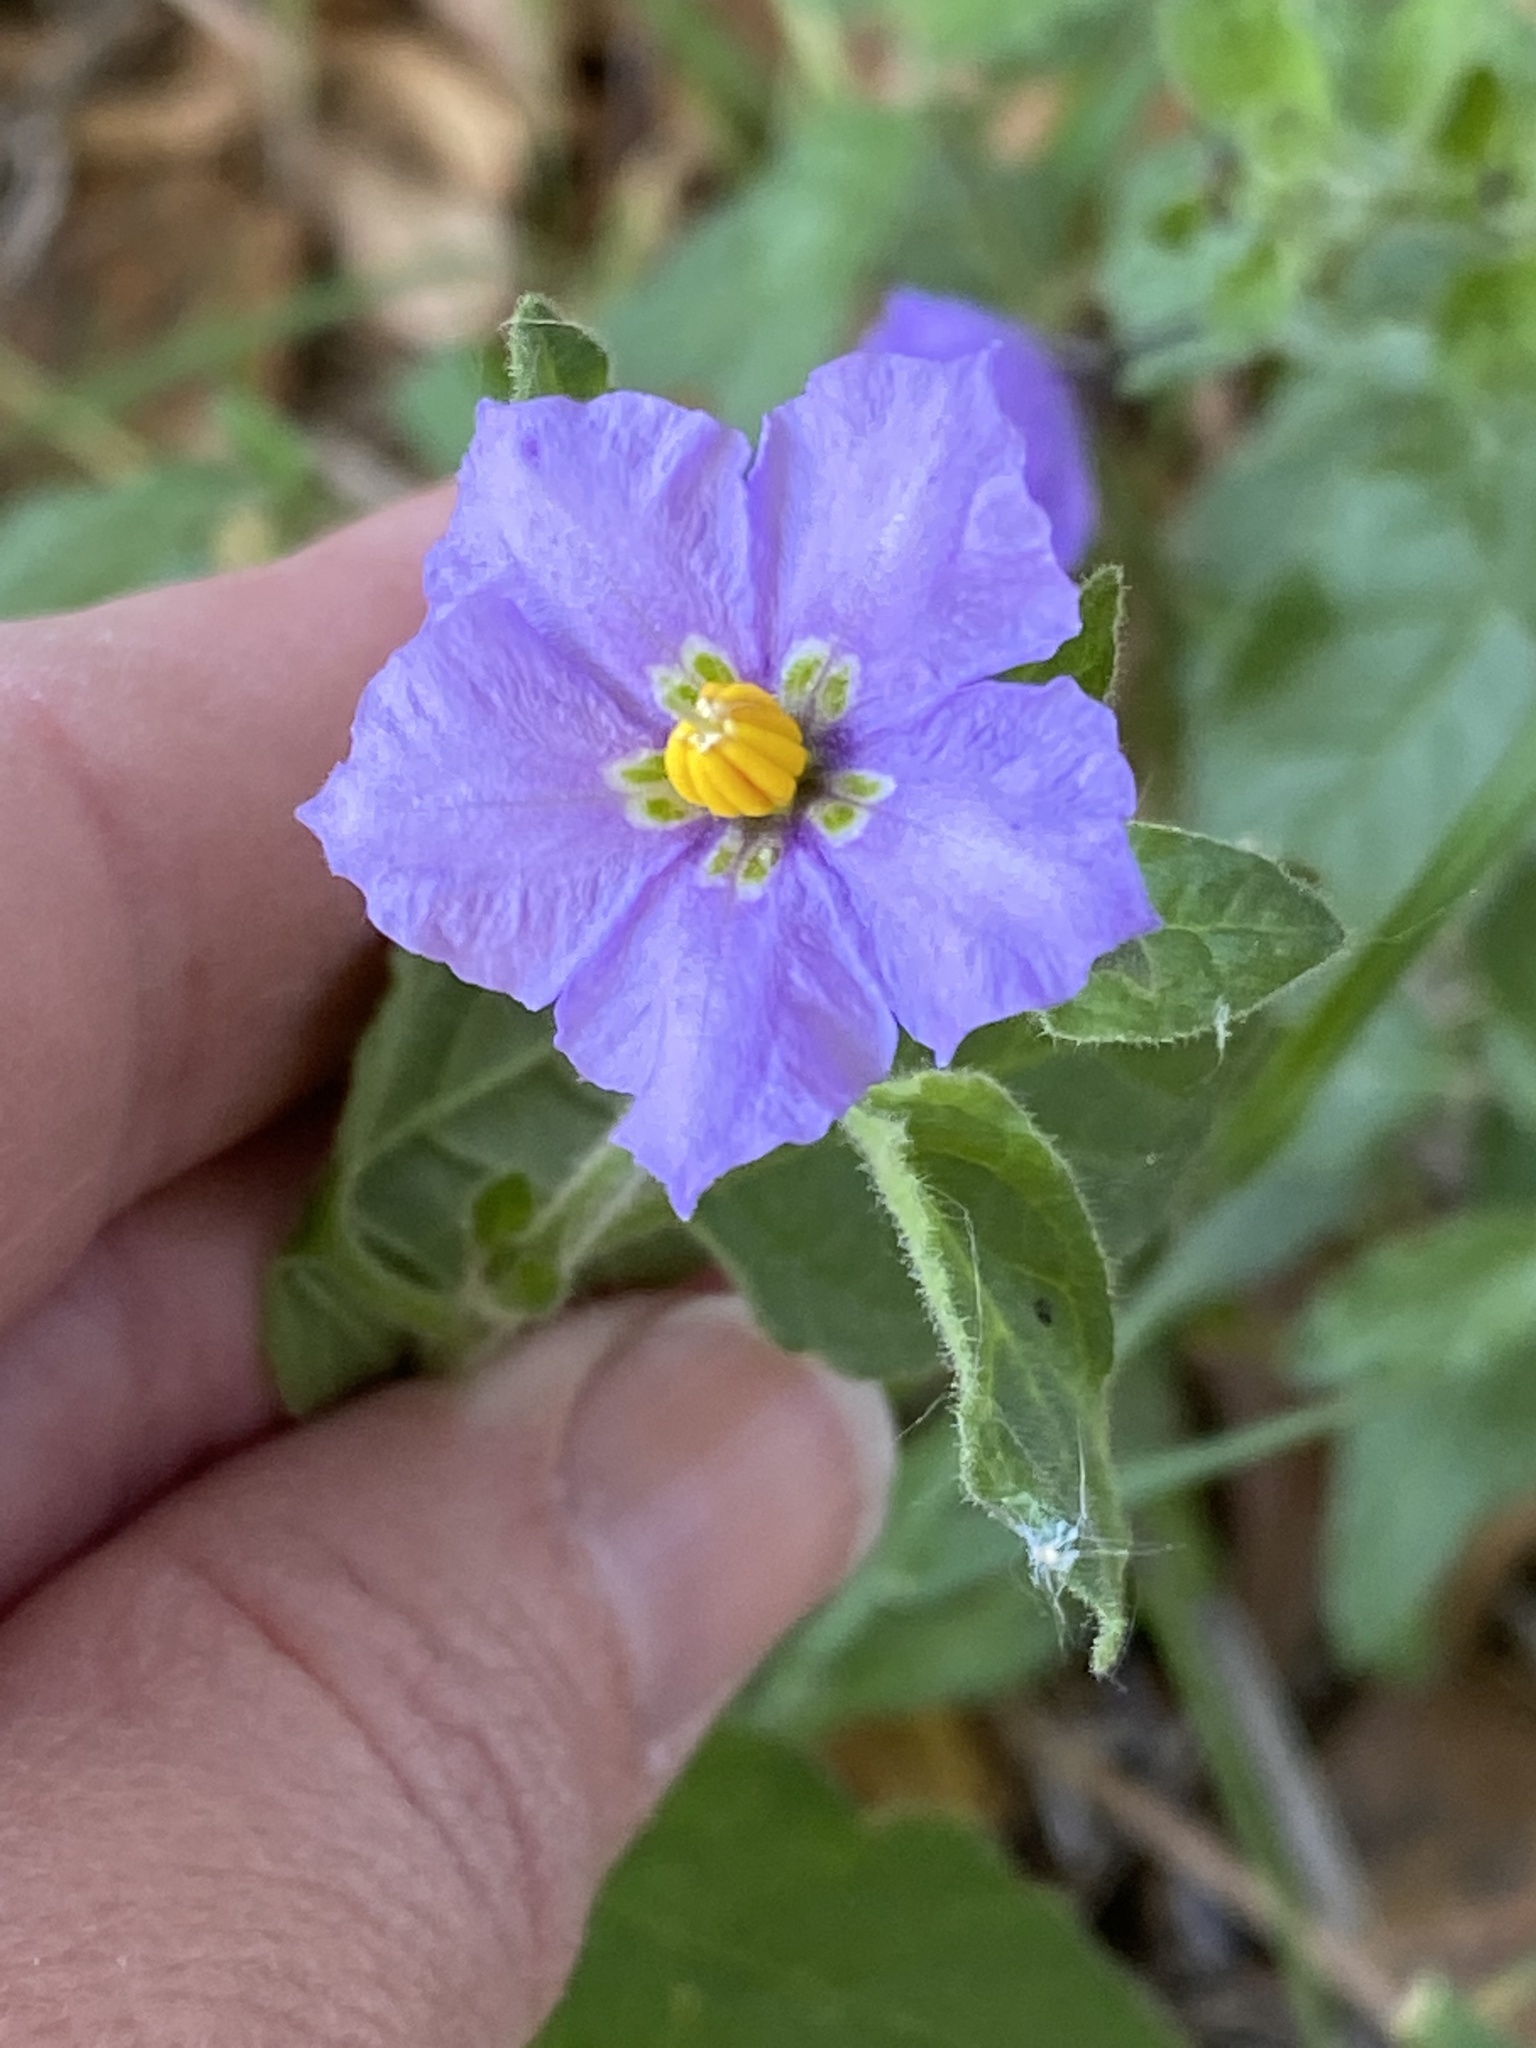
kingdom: Plantae
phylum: Tracheophyta
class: Magnoliopsida
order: Solanales
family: Solanaceae
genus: Solanum
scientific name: Solanum umbelliferum
